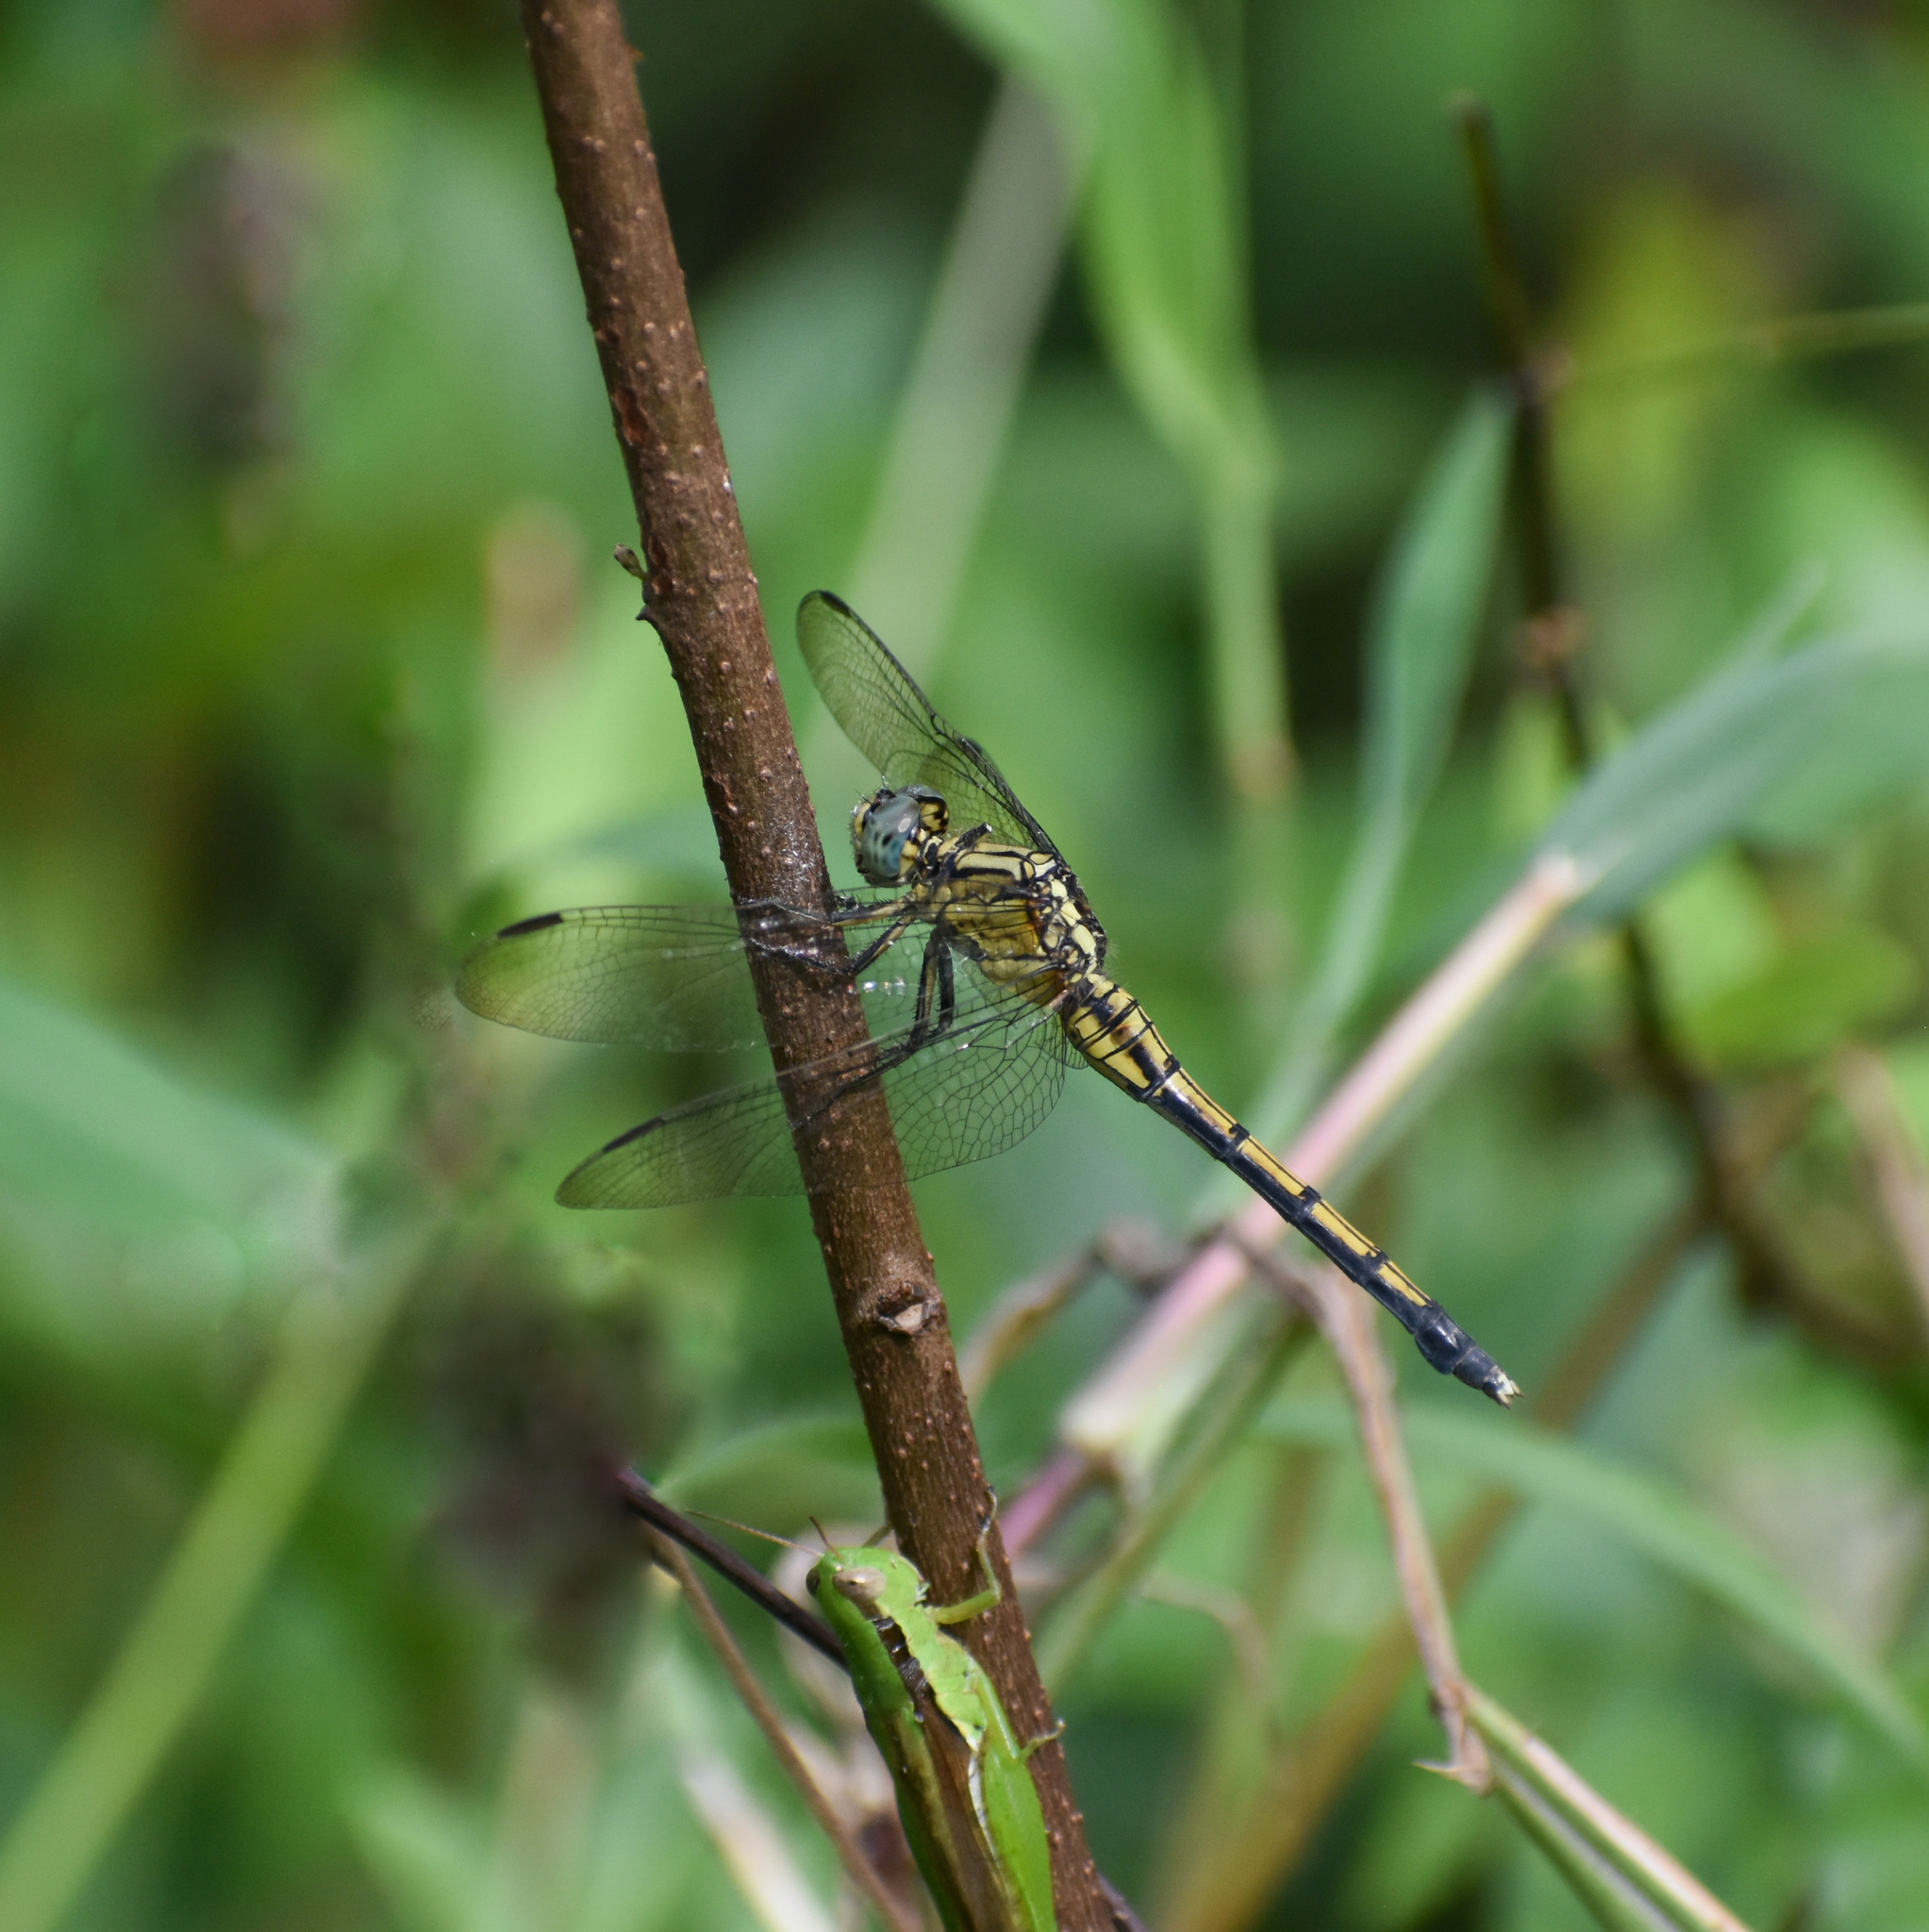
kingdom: Animalia
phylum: Arthropoda
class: Insecta
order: Odonata
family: Libellulidae
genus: Orthetrum
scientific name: Orthetrum luzonicum
